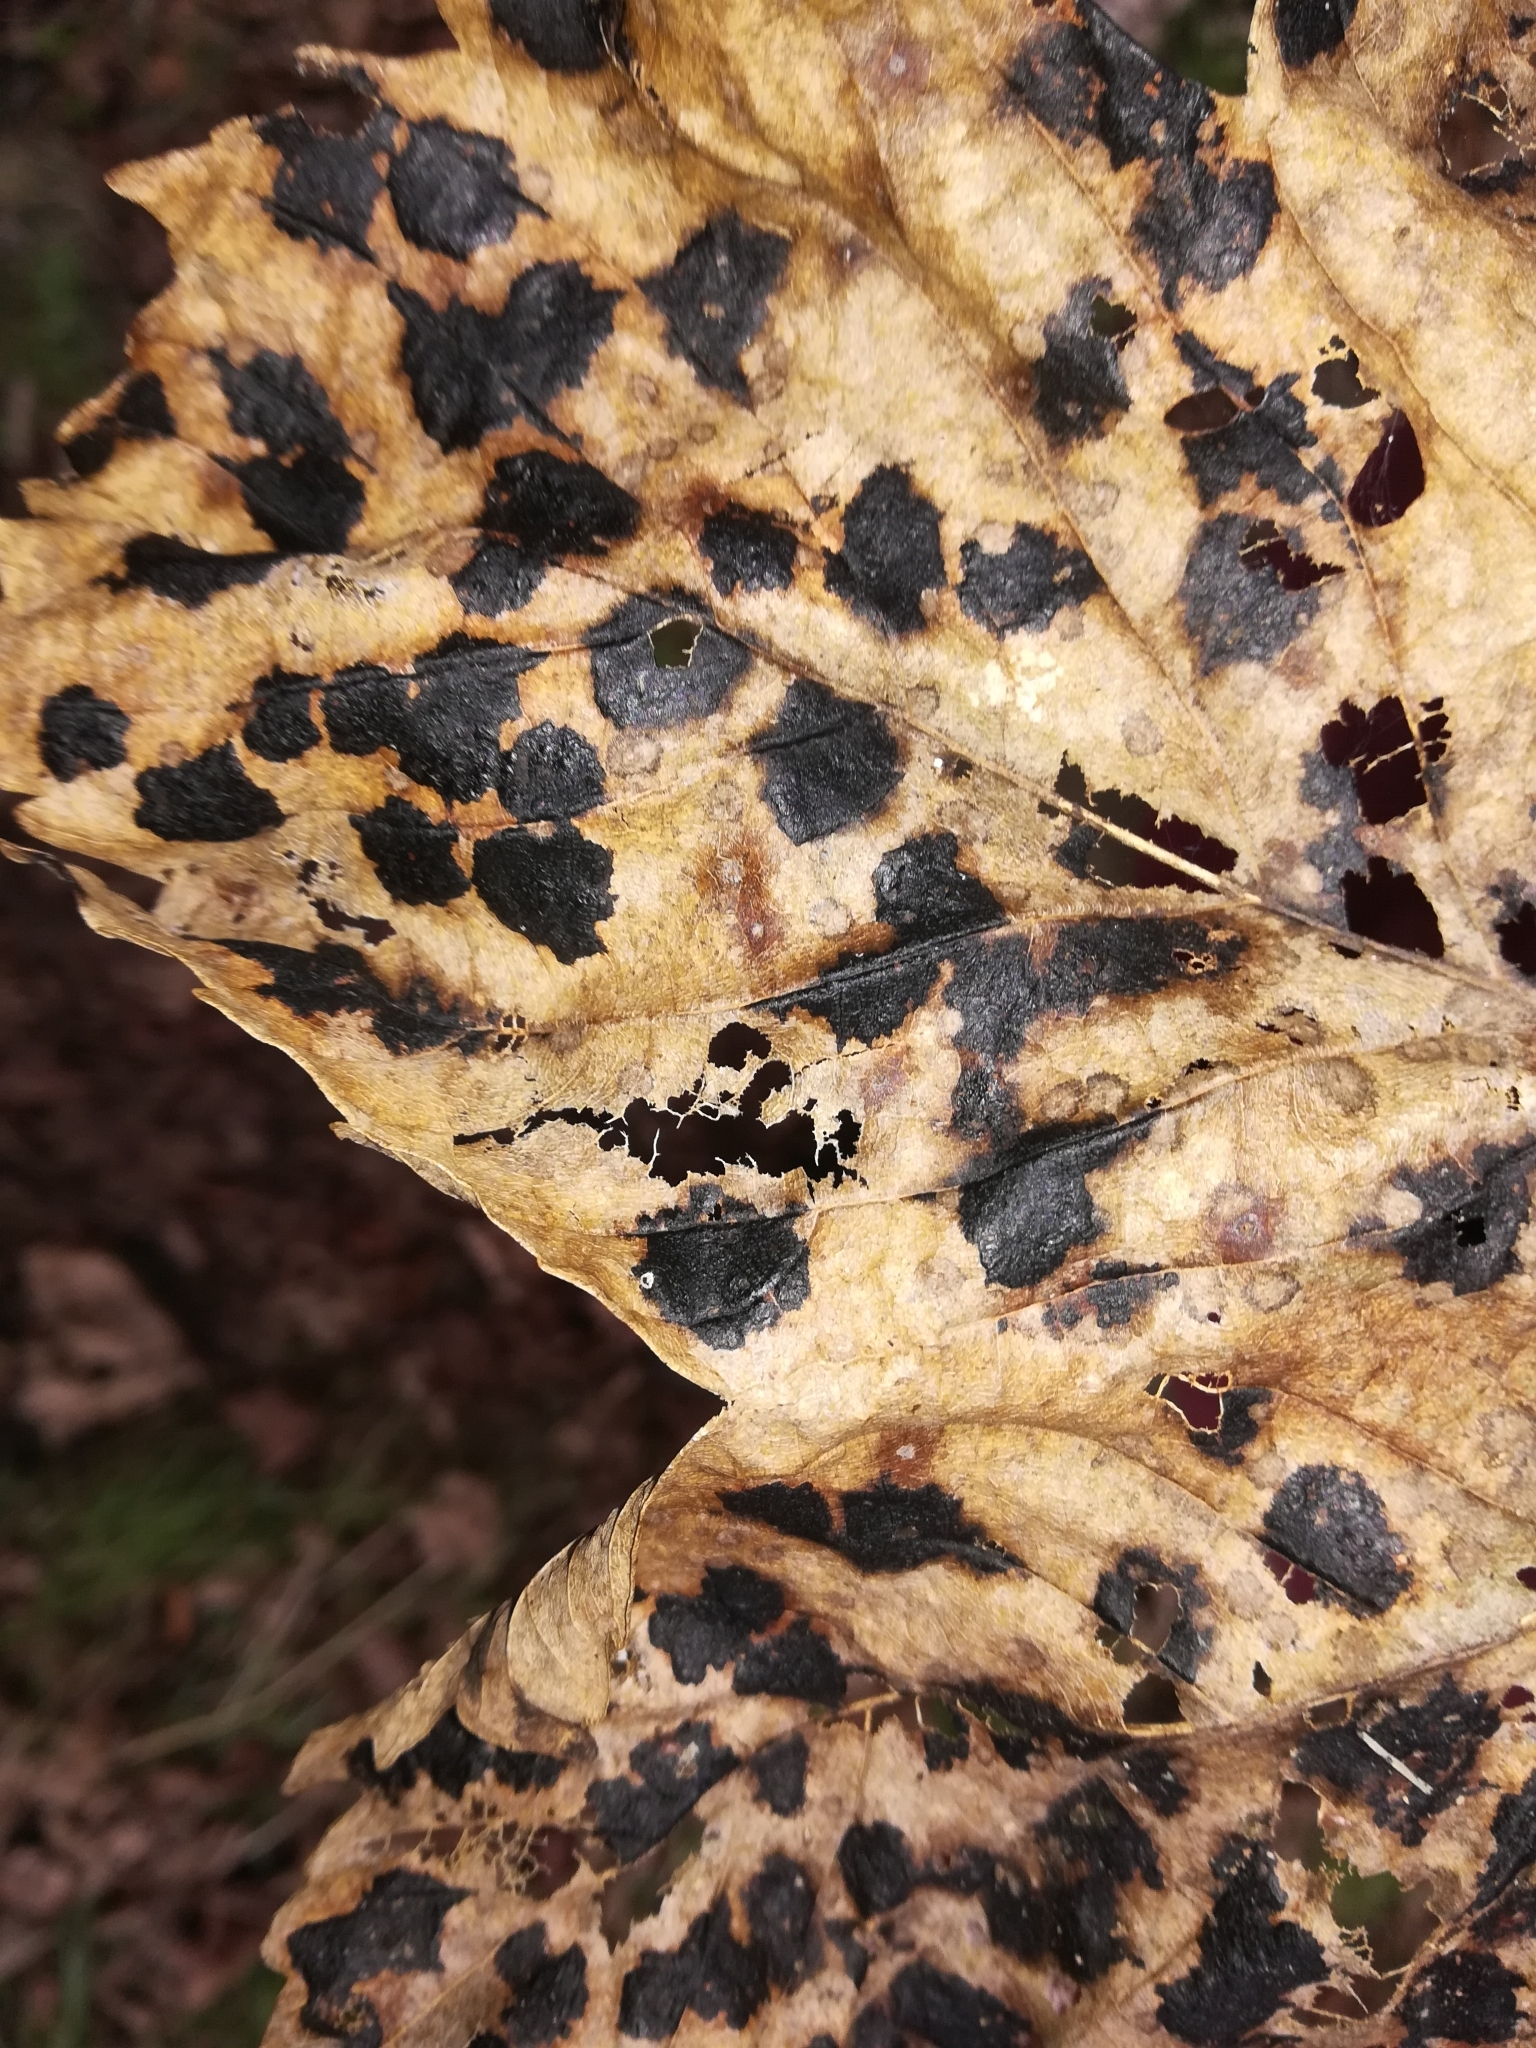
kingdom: Fungi
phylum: Ascomycota
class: Leotiomycetes
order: Rhytismatales
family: Rhytismataceae
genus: Rhytisma
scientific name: Rhytisma acerinum
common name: European tar spot
